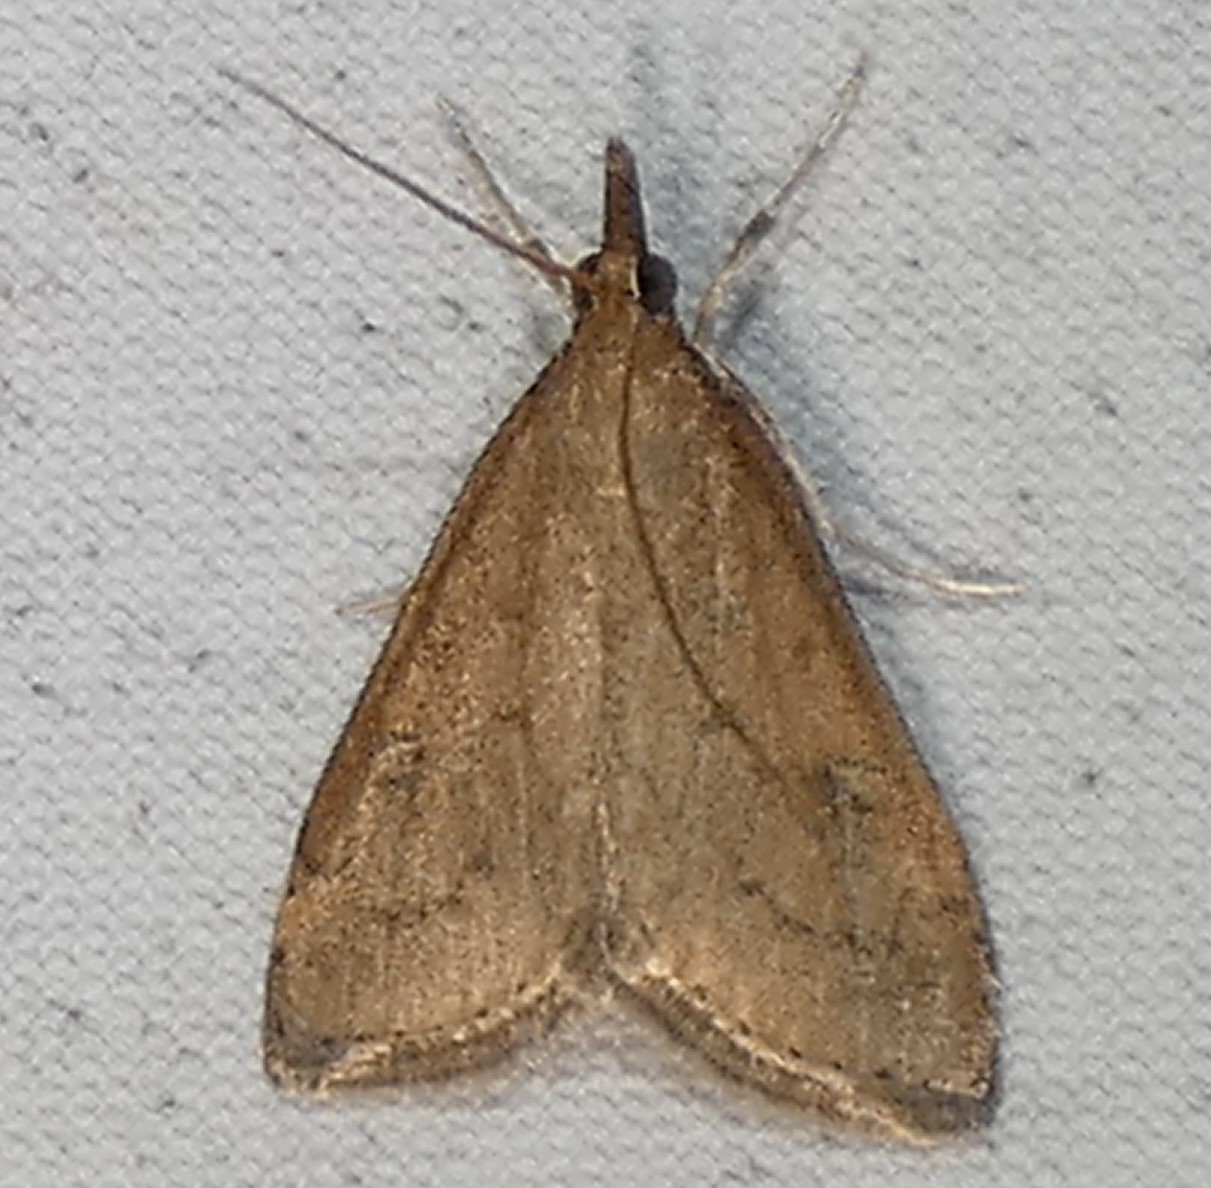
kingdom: Animalia
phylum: Arthropoda
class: Insecta
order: Lepidoptera
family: Crambidae
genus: Udea
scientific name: Udea rubigalis
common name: Celery leaftier moth
